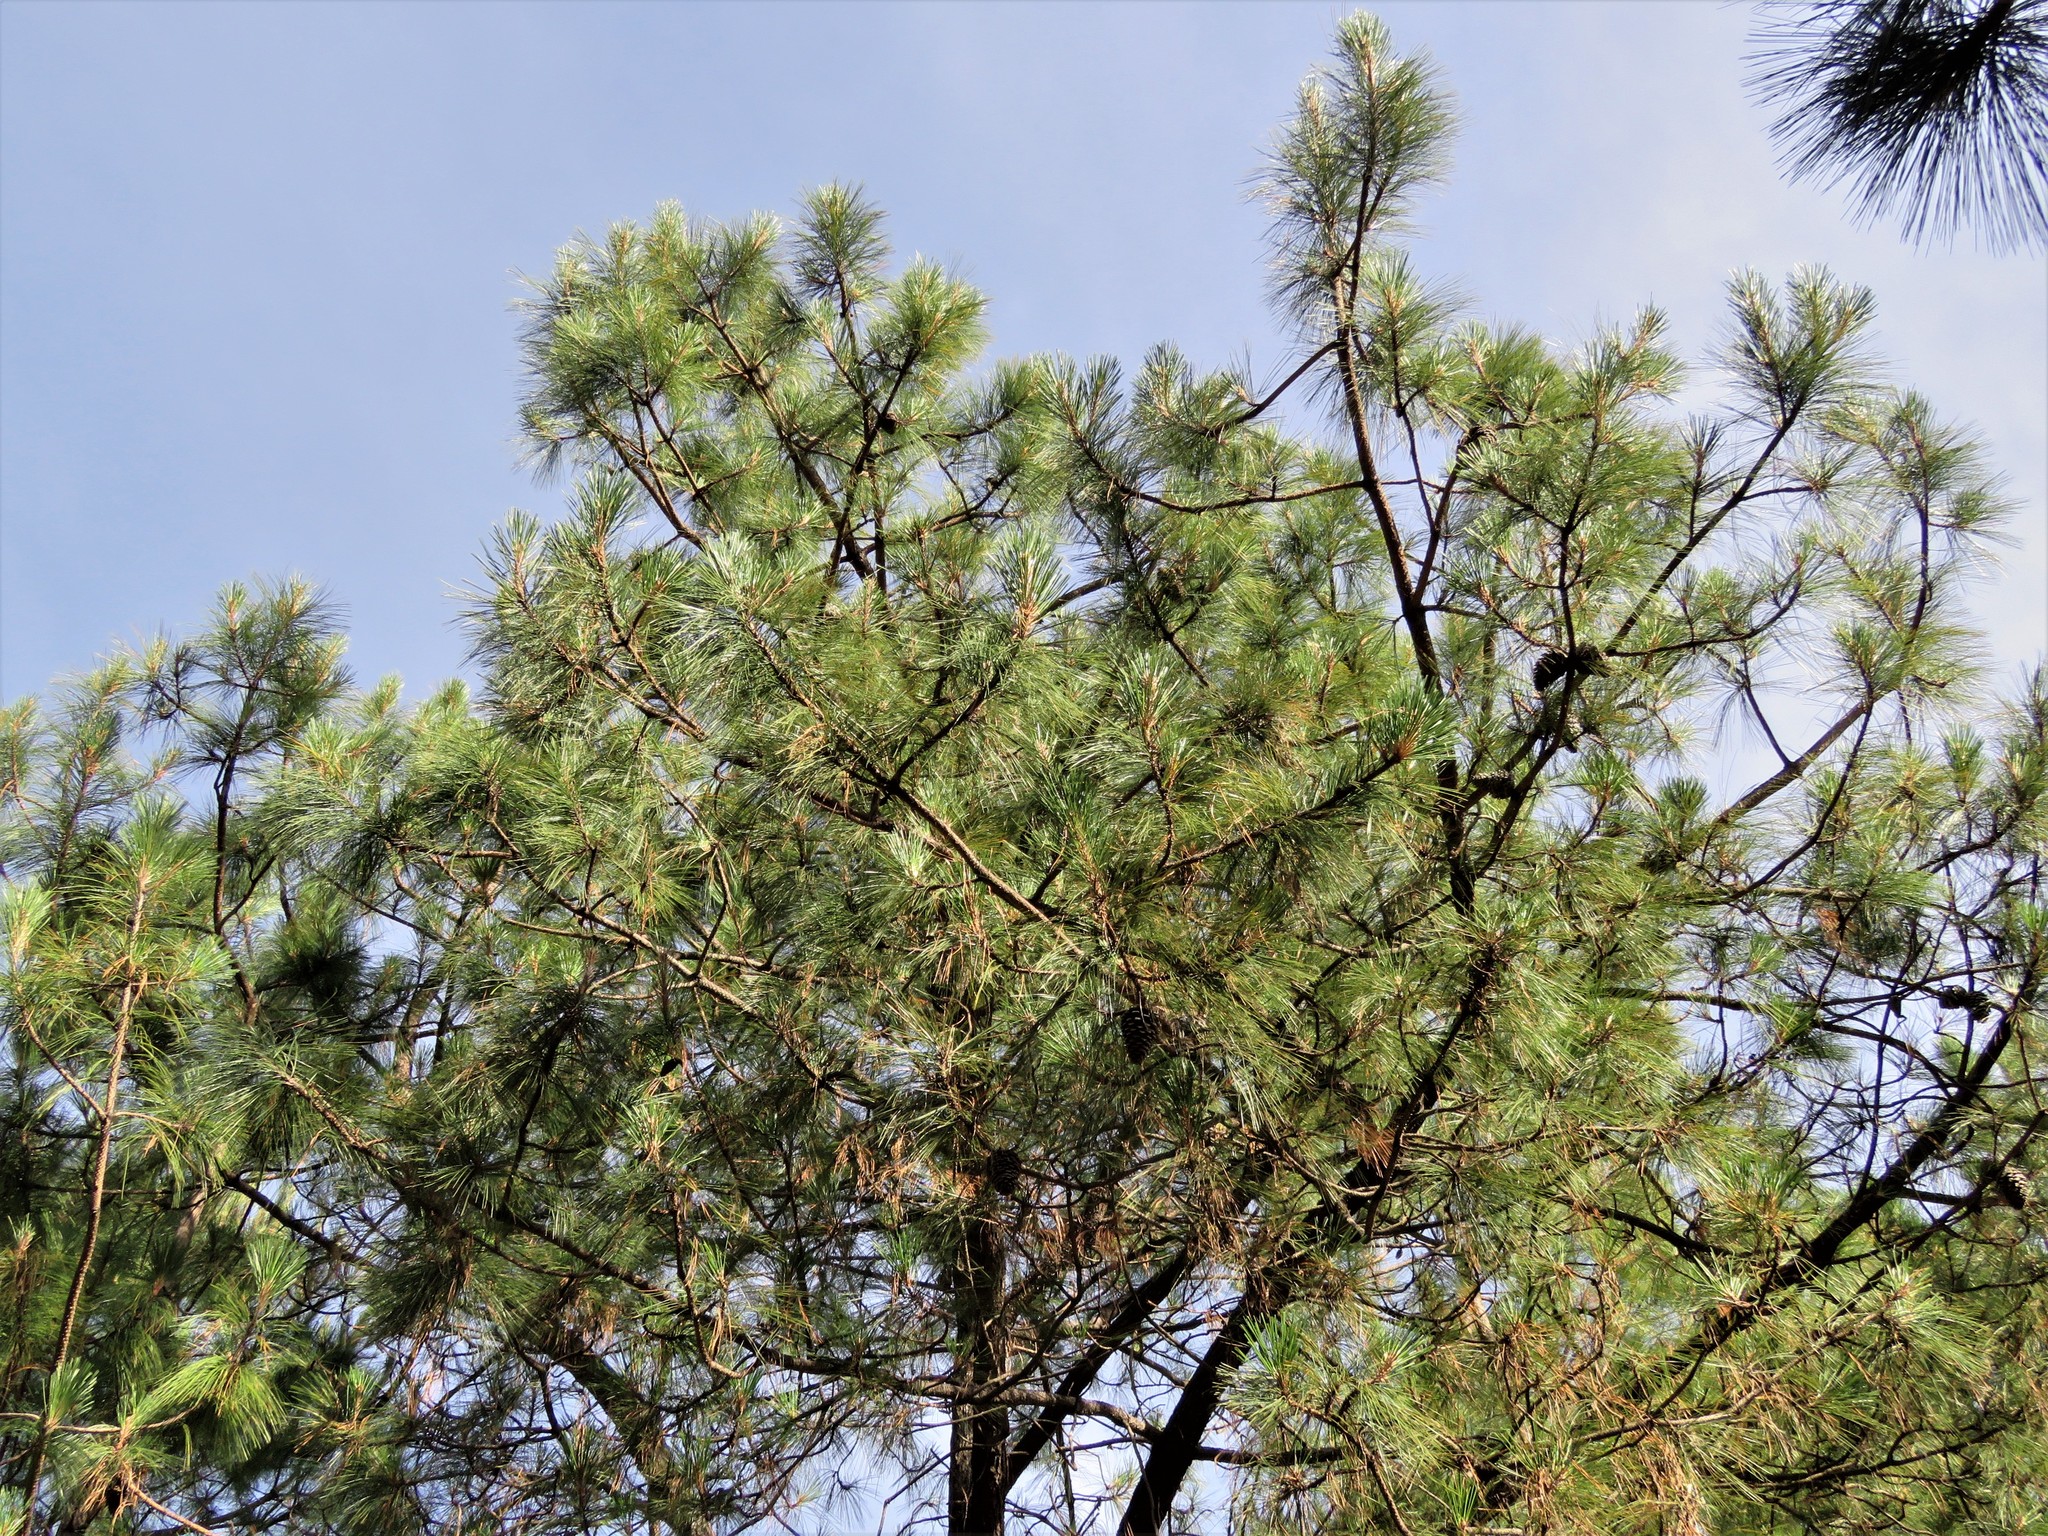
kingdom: Plantae
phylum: Tracheophyta
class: Pinopsida
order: Pinales
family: Pinaceae
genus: Pinus
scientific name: Pinus montezumae
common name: Montezuma pine
